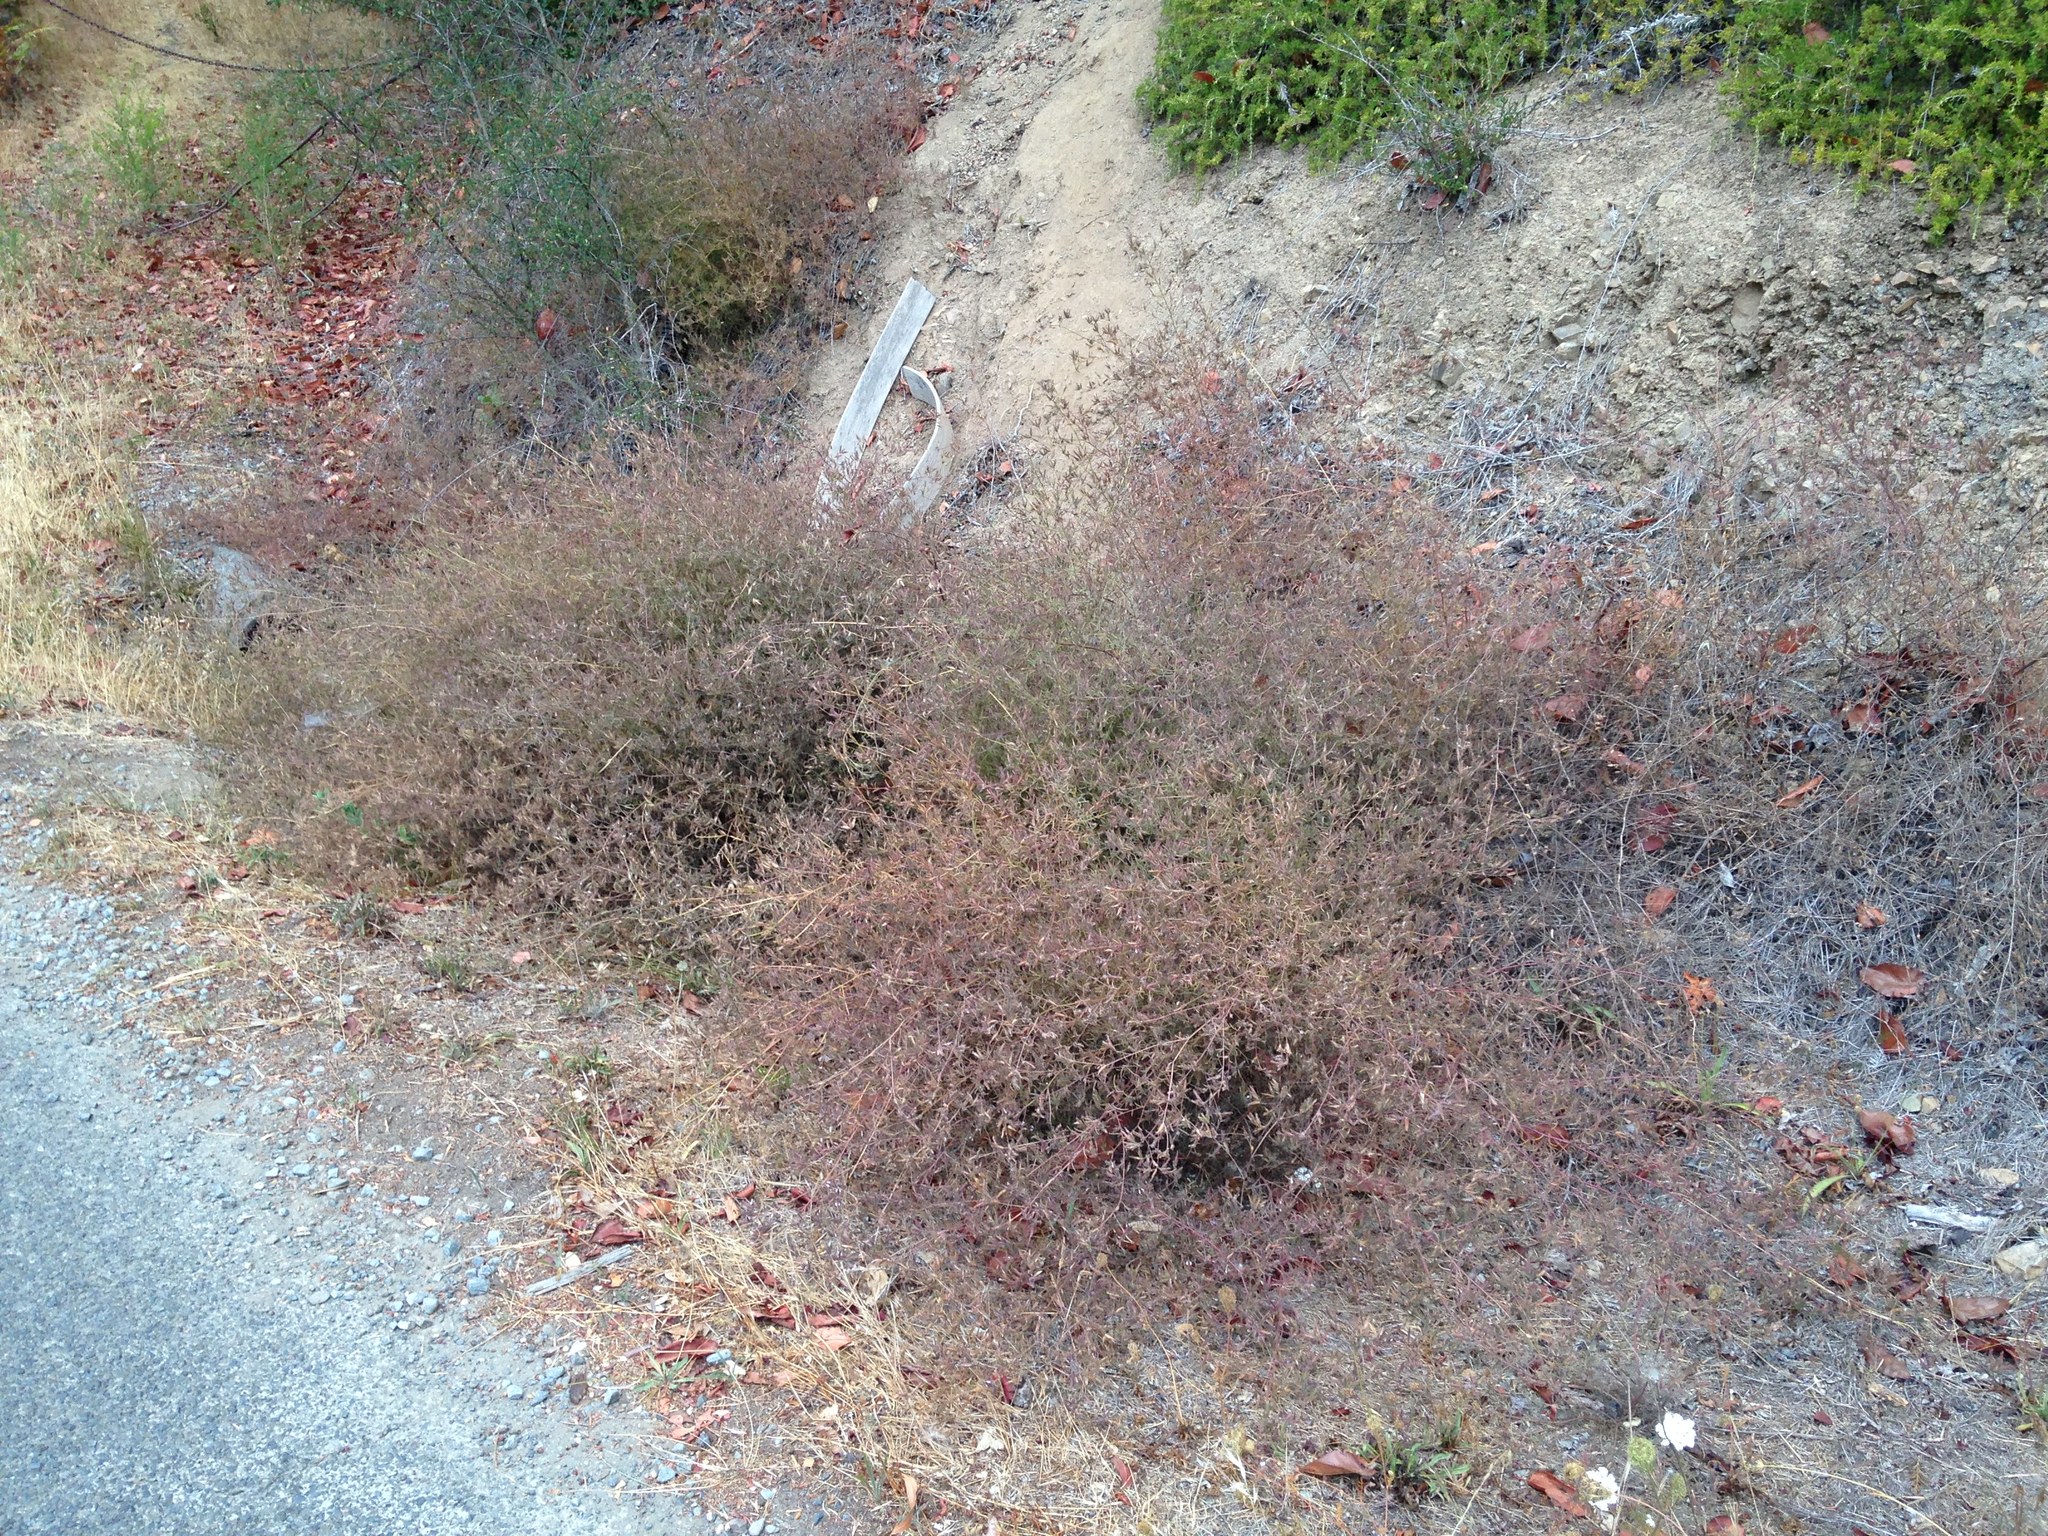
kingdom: Plantae
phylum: Tracheophyta
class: Magnoliopsida
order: Lamiales
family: Orobanchaceae
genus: Cordylanthus
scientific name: Cordylanthus tenuis
